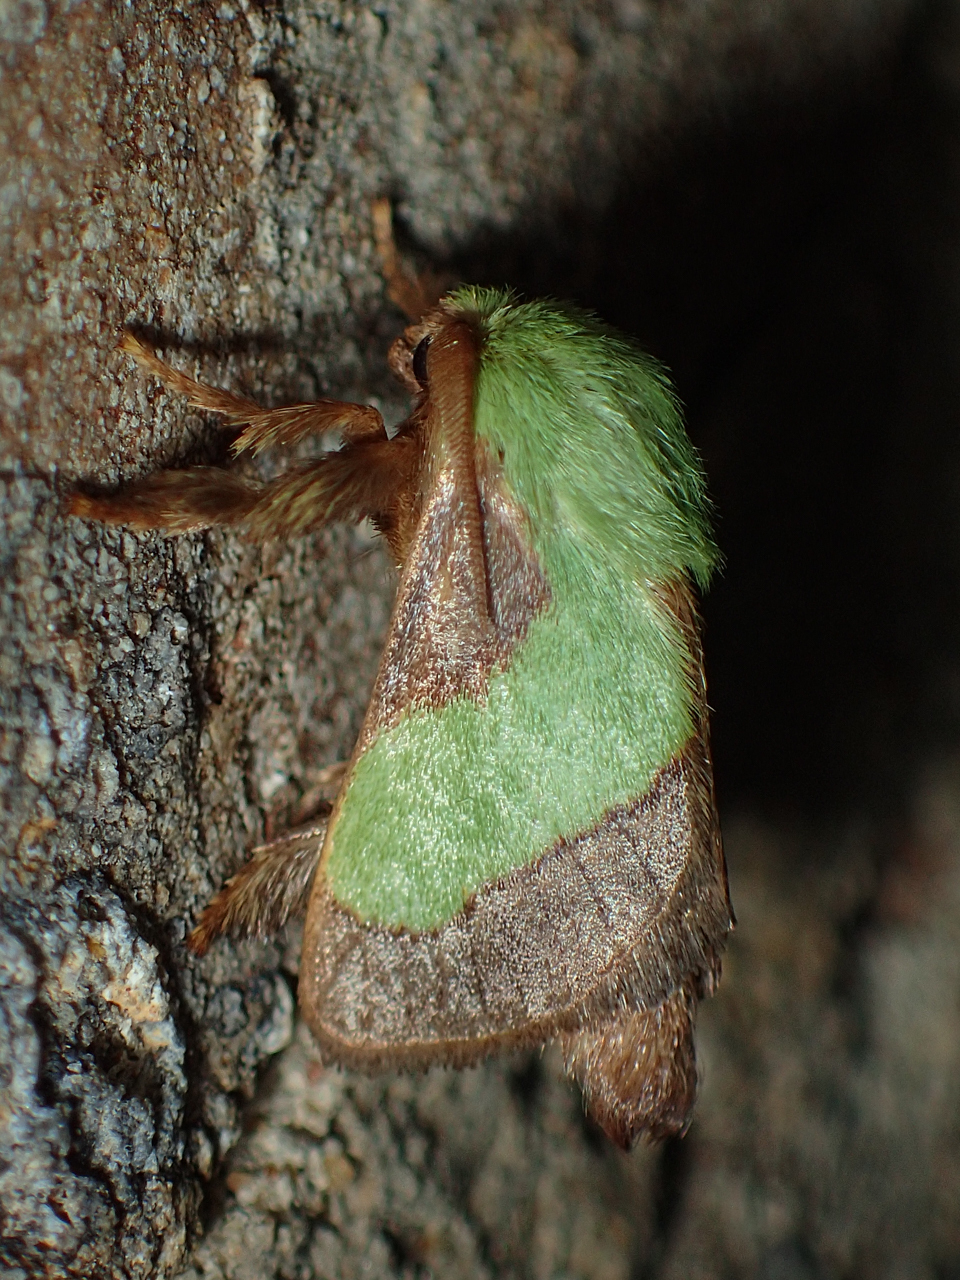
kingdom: Animalia
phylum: Arthropoda
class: Insecta
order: Lepidoptera
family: Limacodidae
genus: Parasa
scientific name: Parasa chloris
